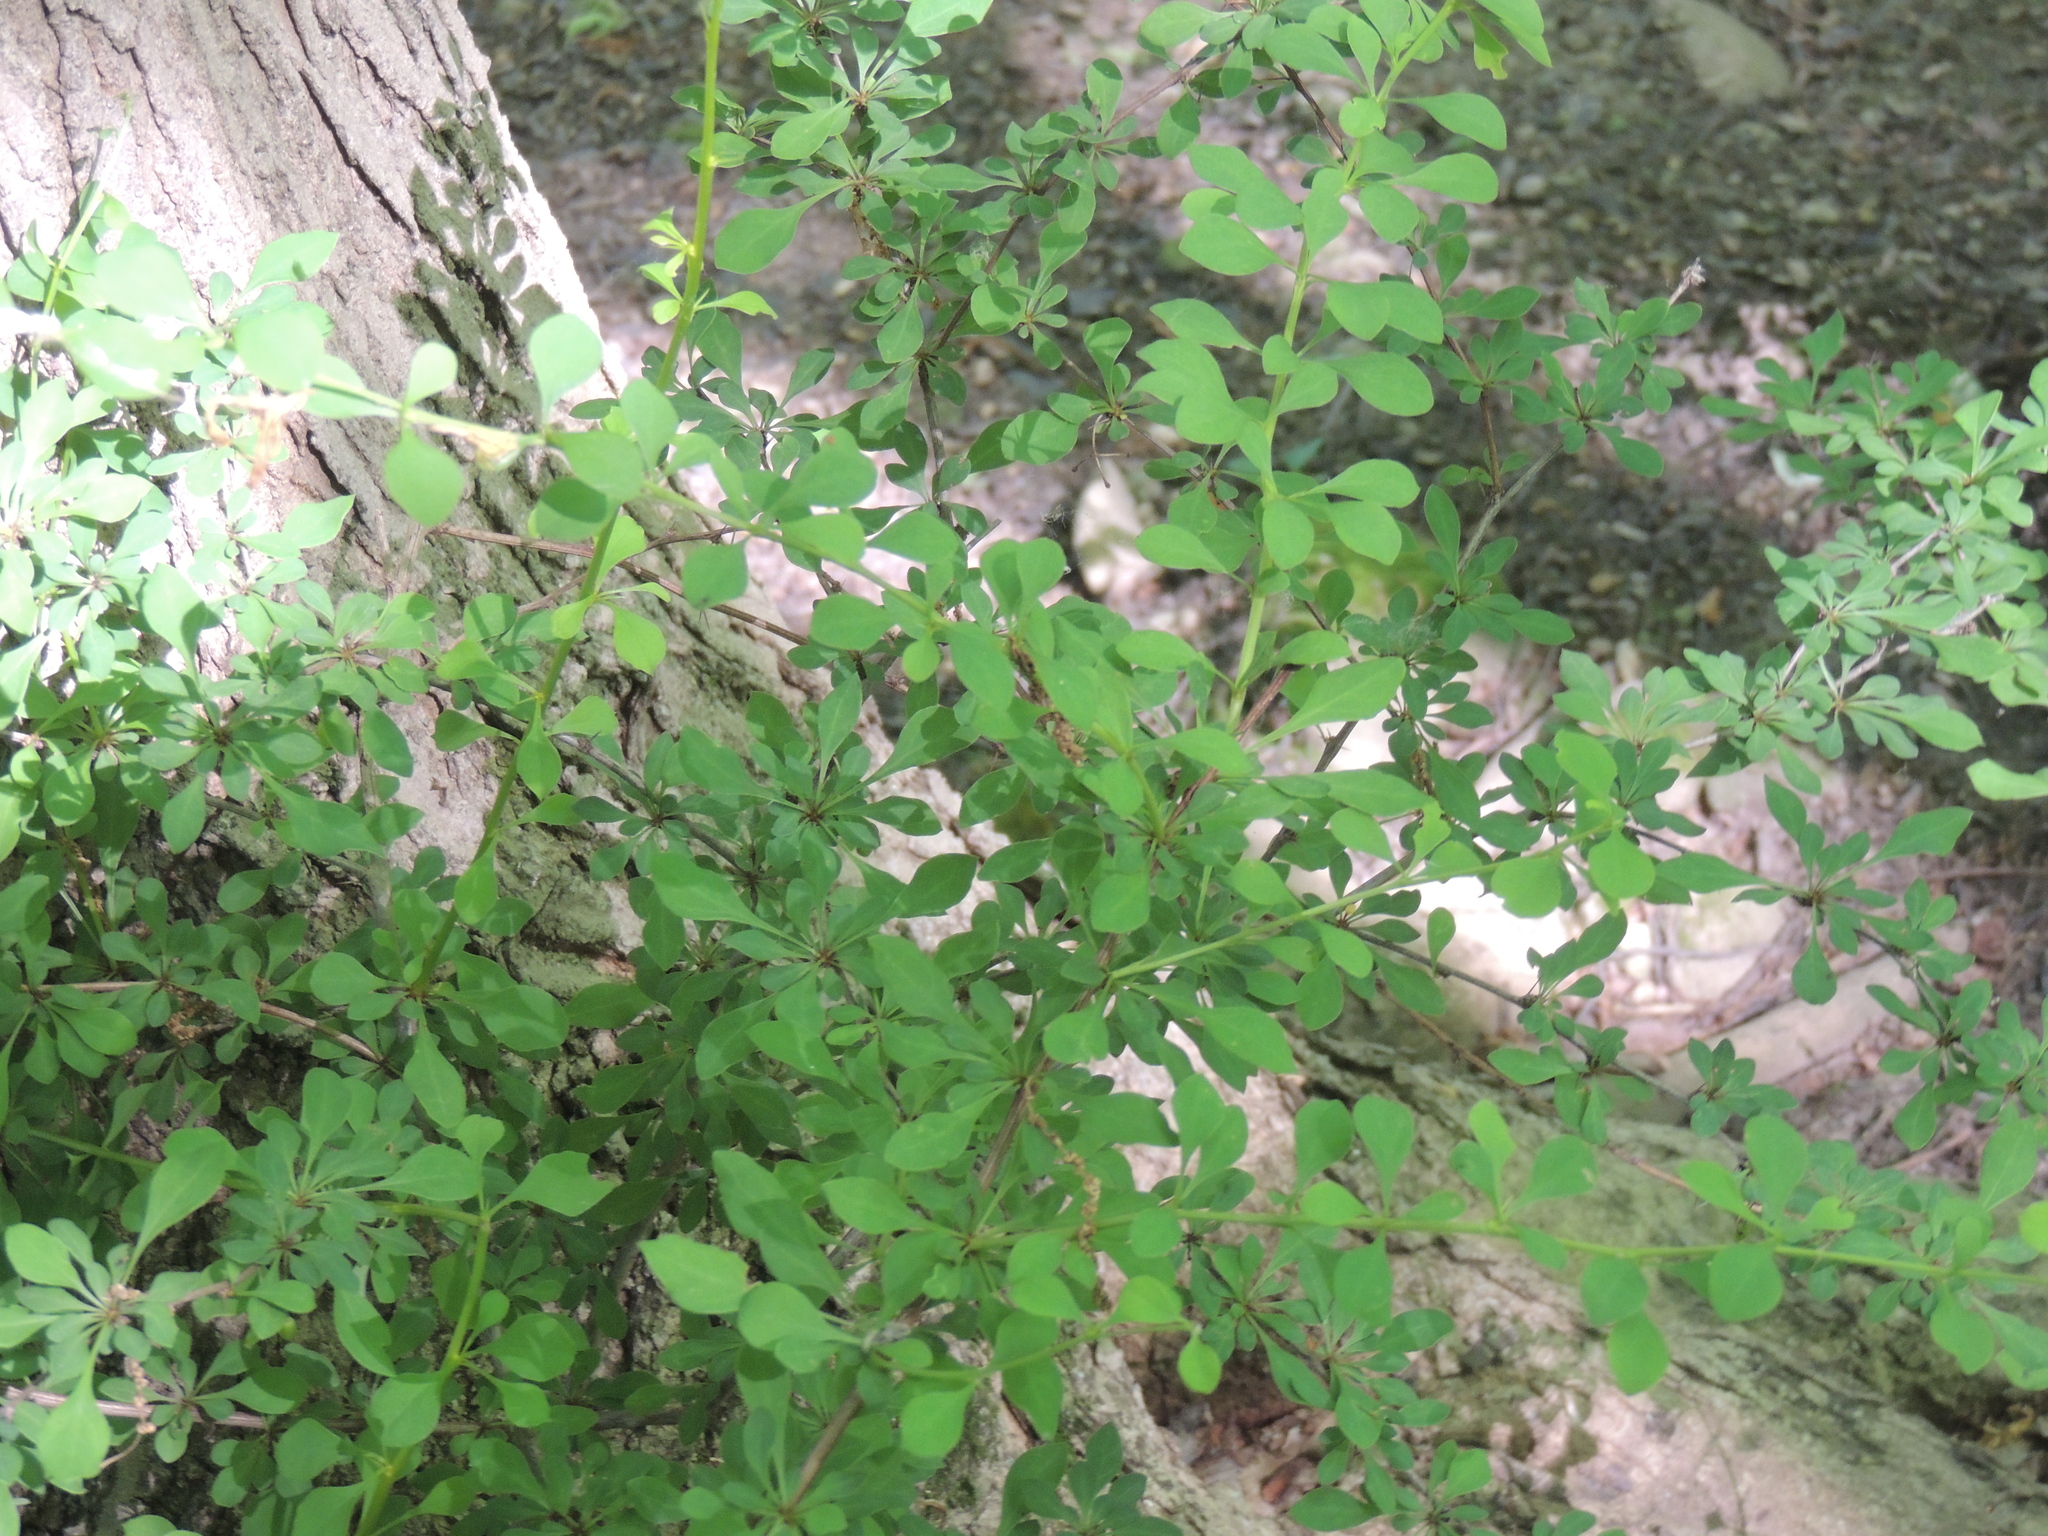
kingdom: Plantae
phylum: Tracheophyta
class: Magnoliopsida
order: Ranunculales
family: Berberidaceae
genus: Berberis
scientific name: Berberis thunbergii
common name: Japanese barberry
